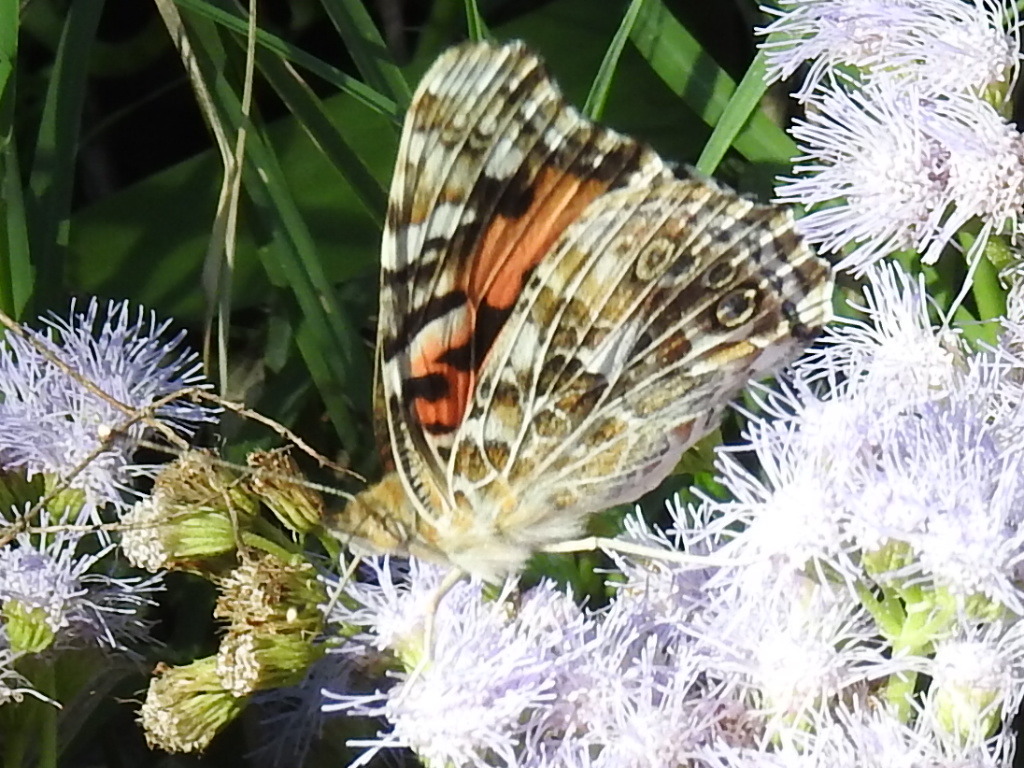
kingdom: Animalia
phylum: Arthropoda
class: Insecta
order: Lepidoptera
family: Nymphalidae
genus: Vanessa
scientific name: Vanessa cardui
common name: Painted lady
